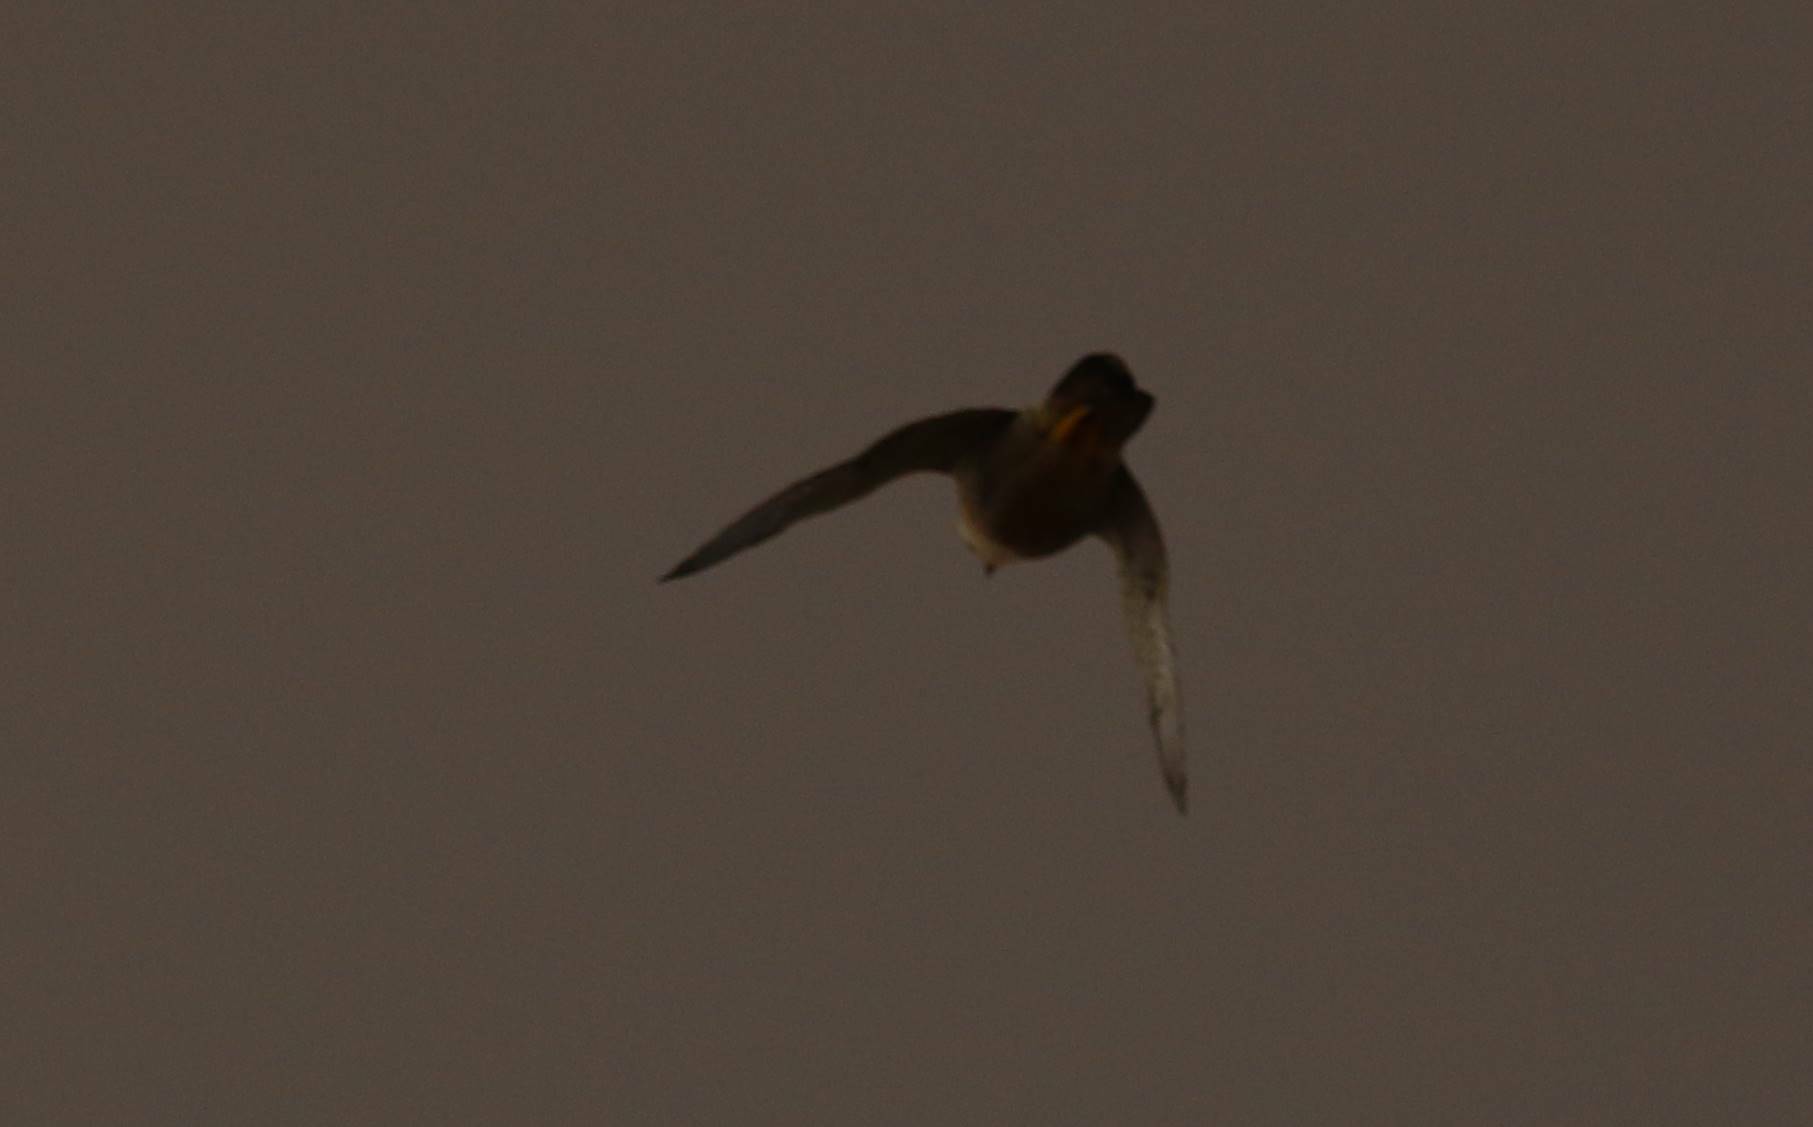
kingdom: Animalia
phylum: Chordata
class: Aves
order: Falconiformes
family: Falconidae
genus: Falco
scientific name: Falco naumanni
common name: Lesser kestrel
